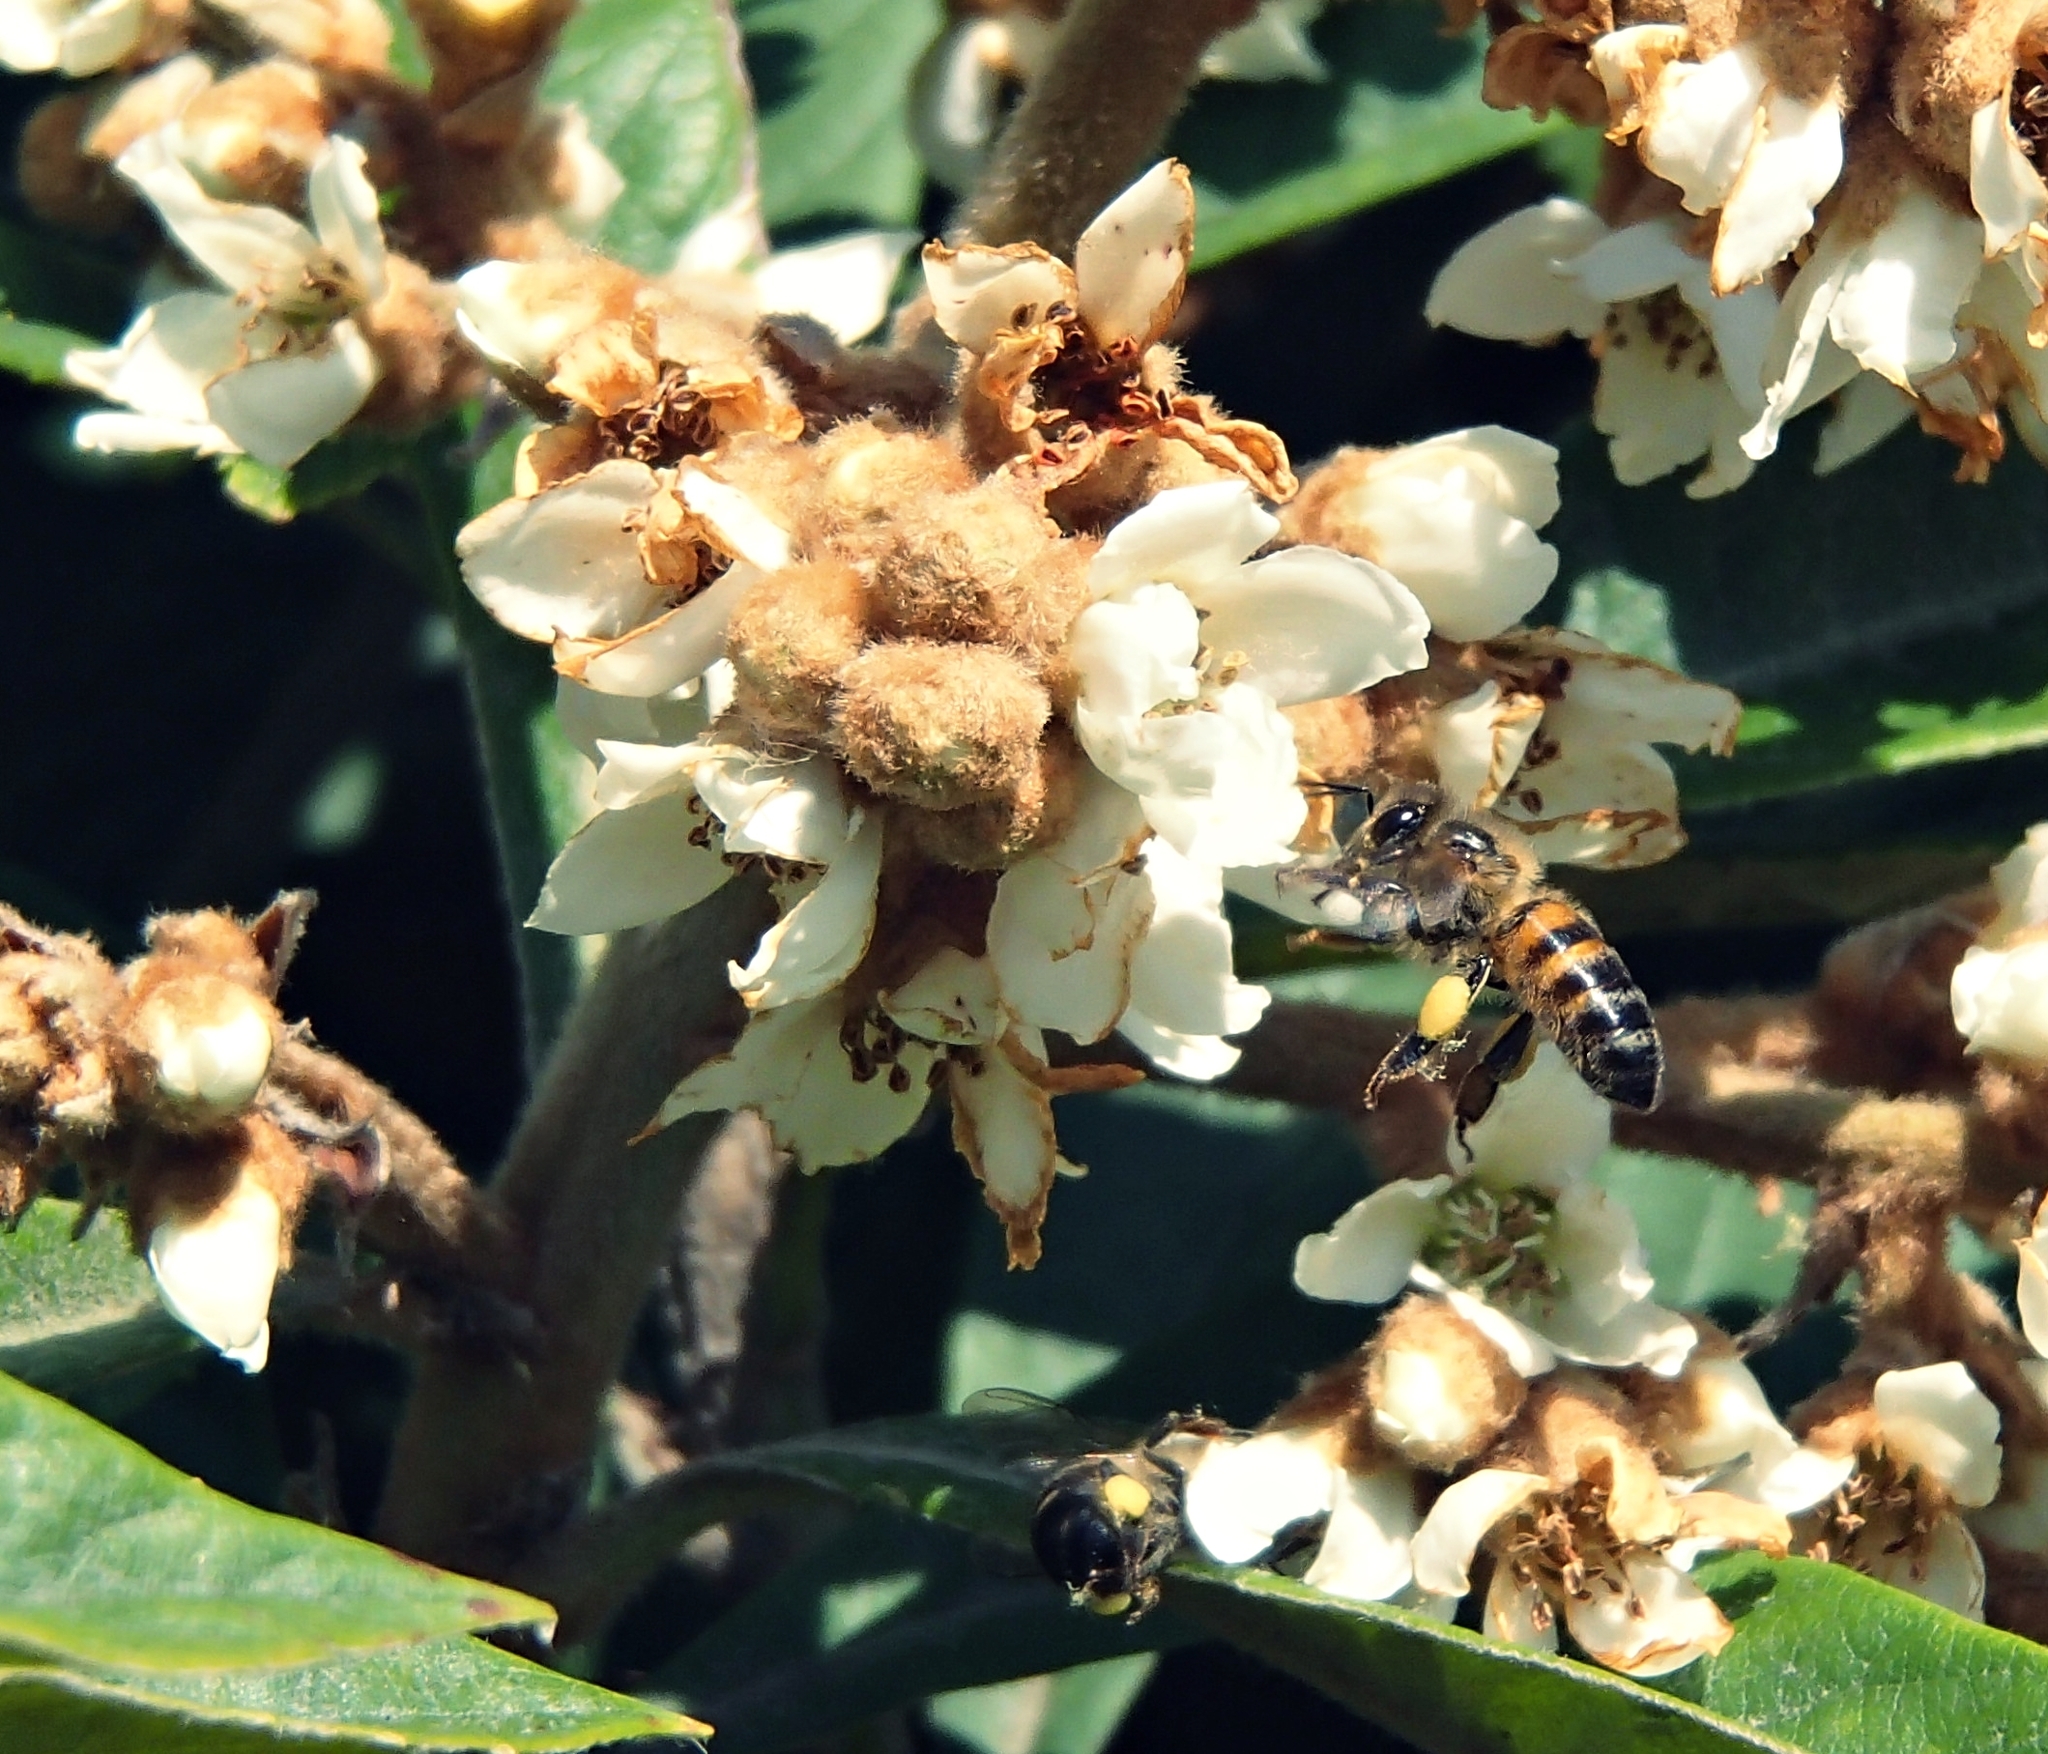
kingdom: Animalia
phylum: Arthropoda
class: Insecta
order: Hymenoptera
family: Apidae
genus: Apis
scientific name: Apis mellifera
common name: Honey bee
